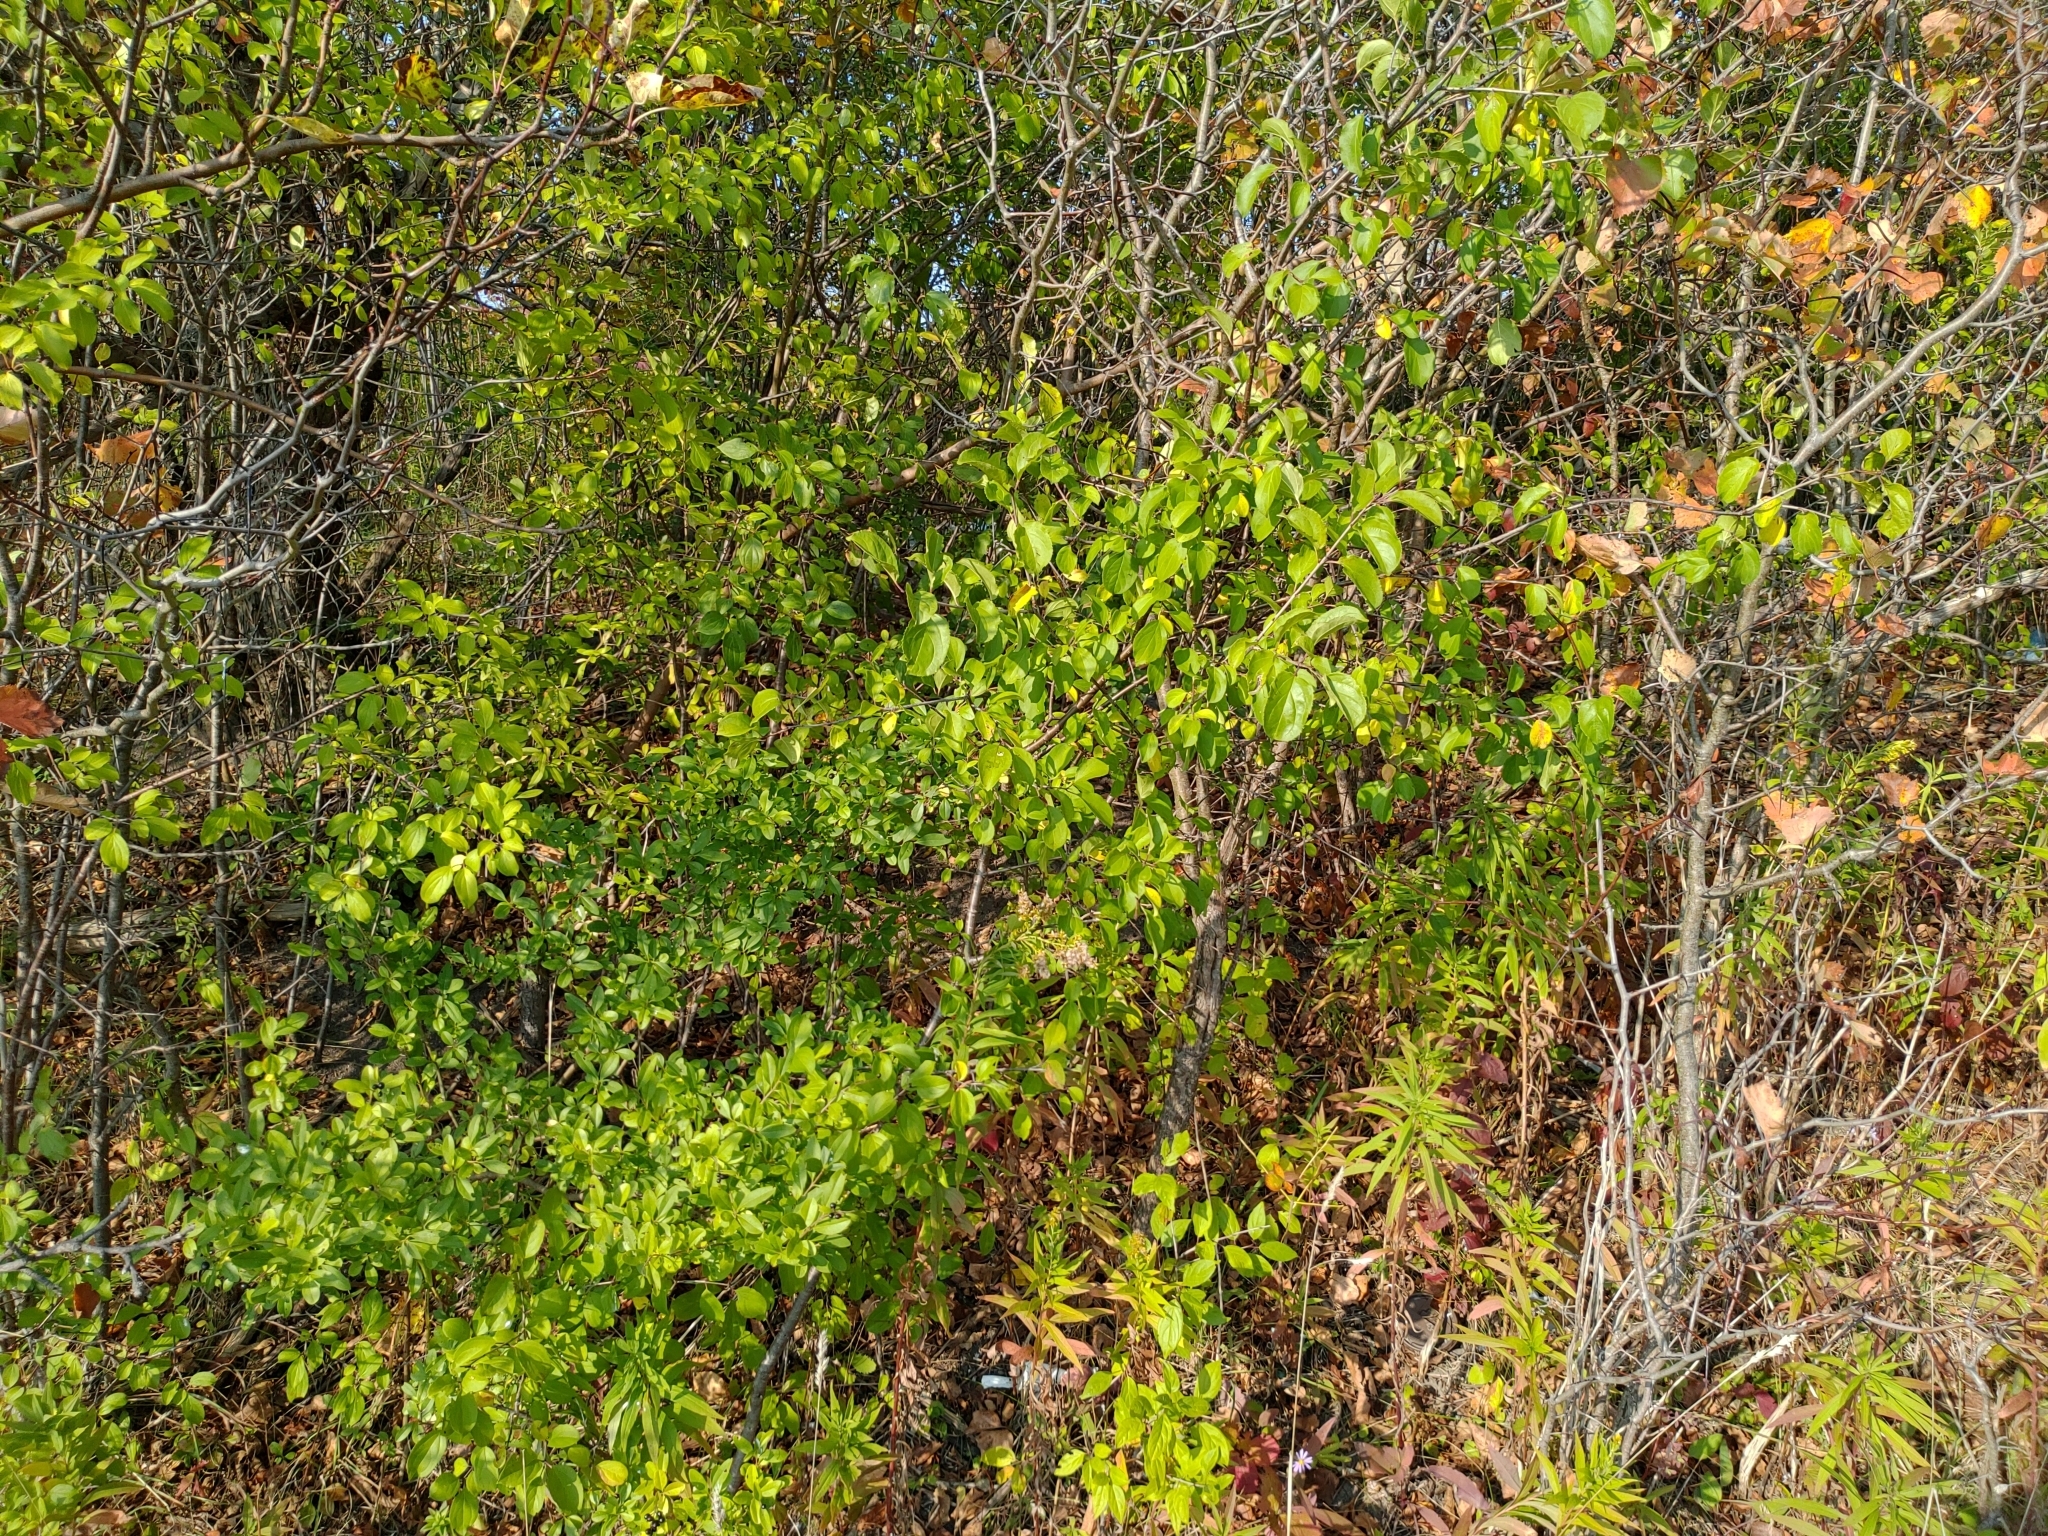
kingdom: Plantae
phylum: Tracheophyta
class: Magnoliopsida
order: Rosales
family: Rhamnaceae
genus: Rhamnus
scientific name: Rhamnus cathartica
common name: Common buckthorn
